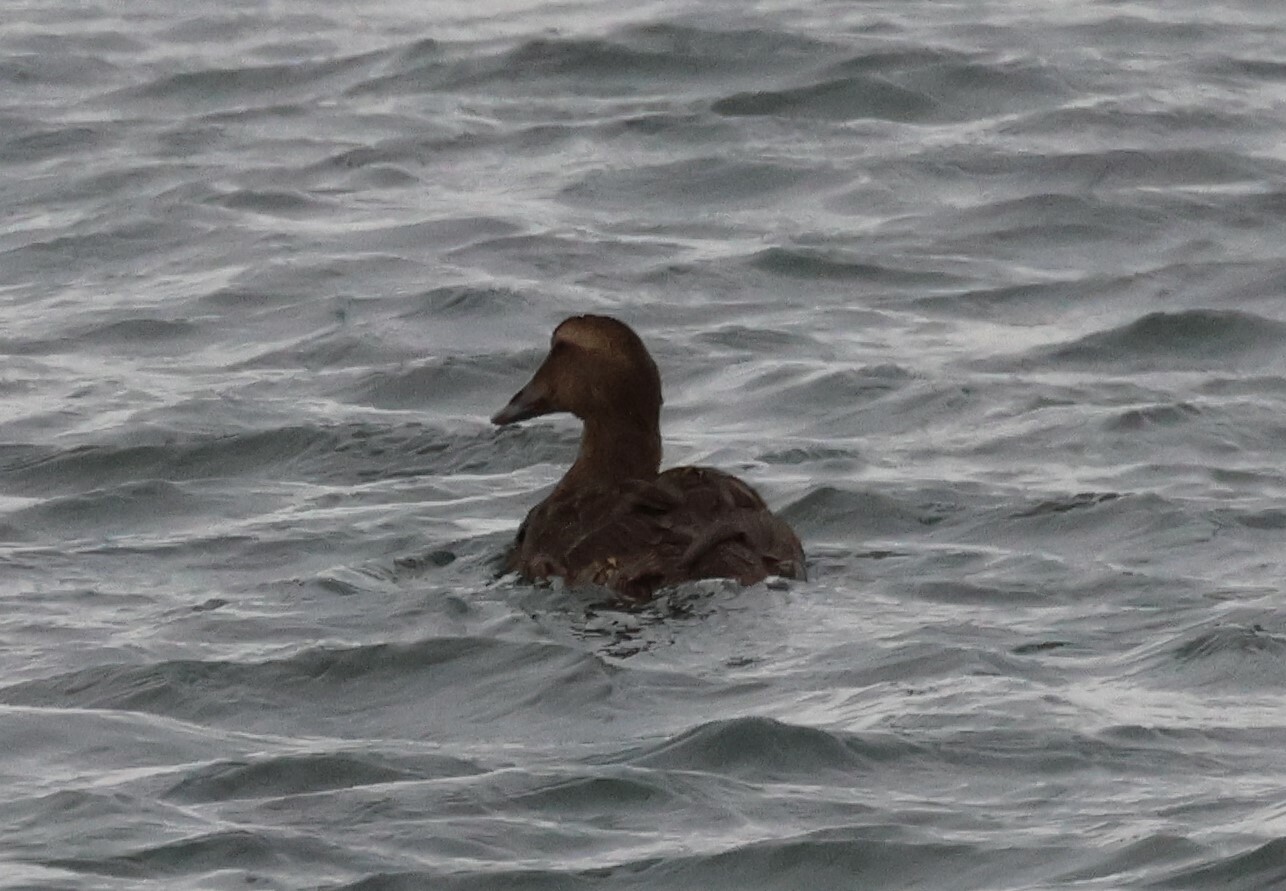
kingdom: Animalia
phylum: Chordata
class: Aves
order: Anseriformes
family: Anatidae
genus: Somateria
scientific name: Somateria mollissima
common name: Common eider
